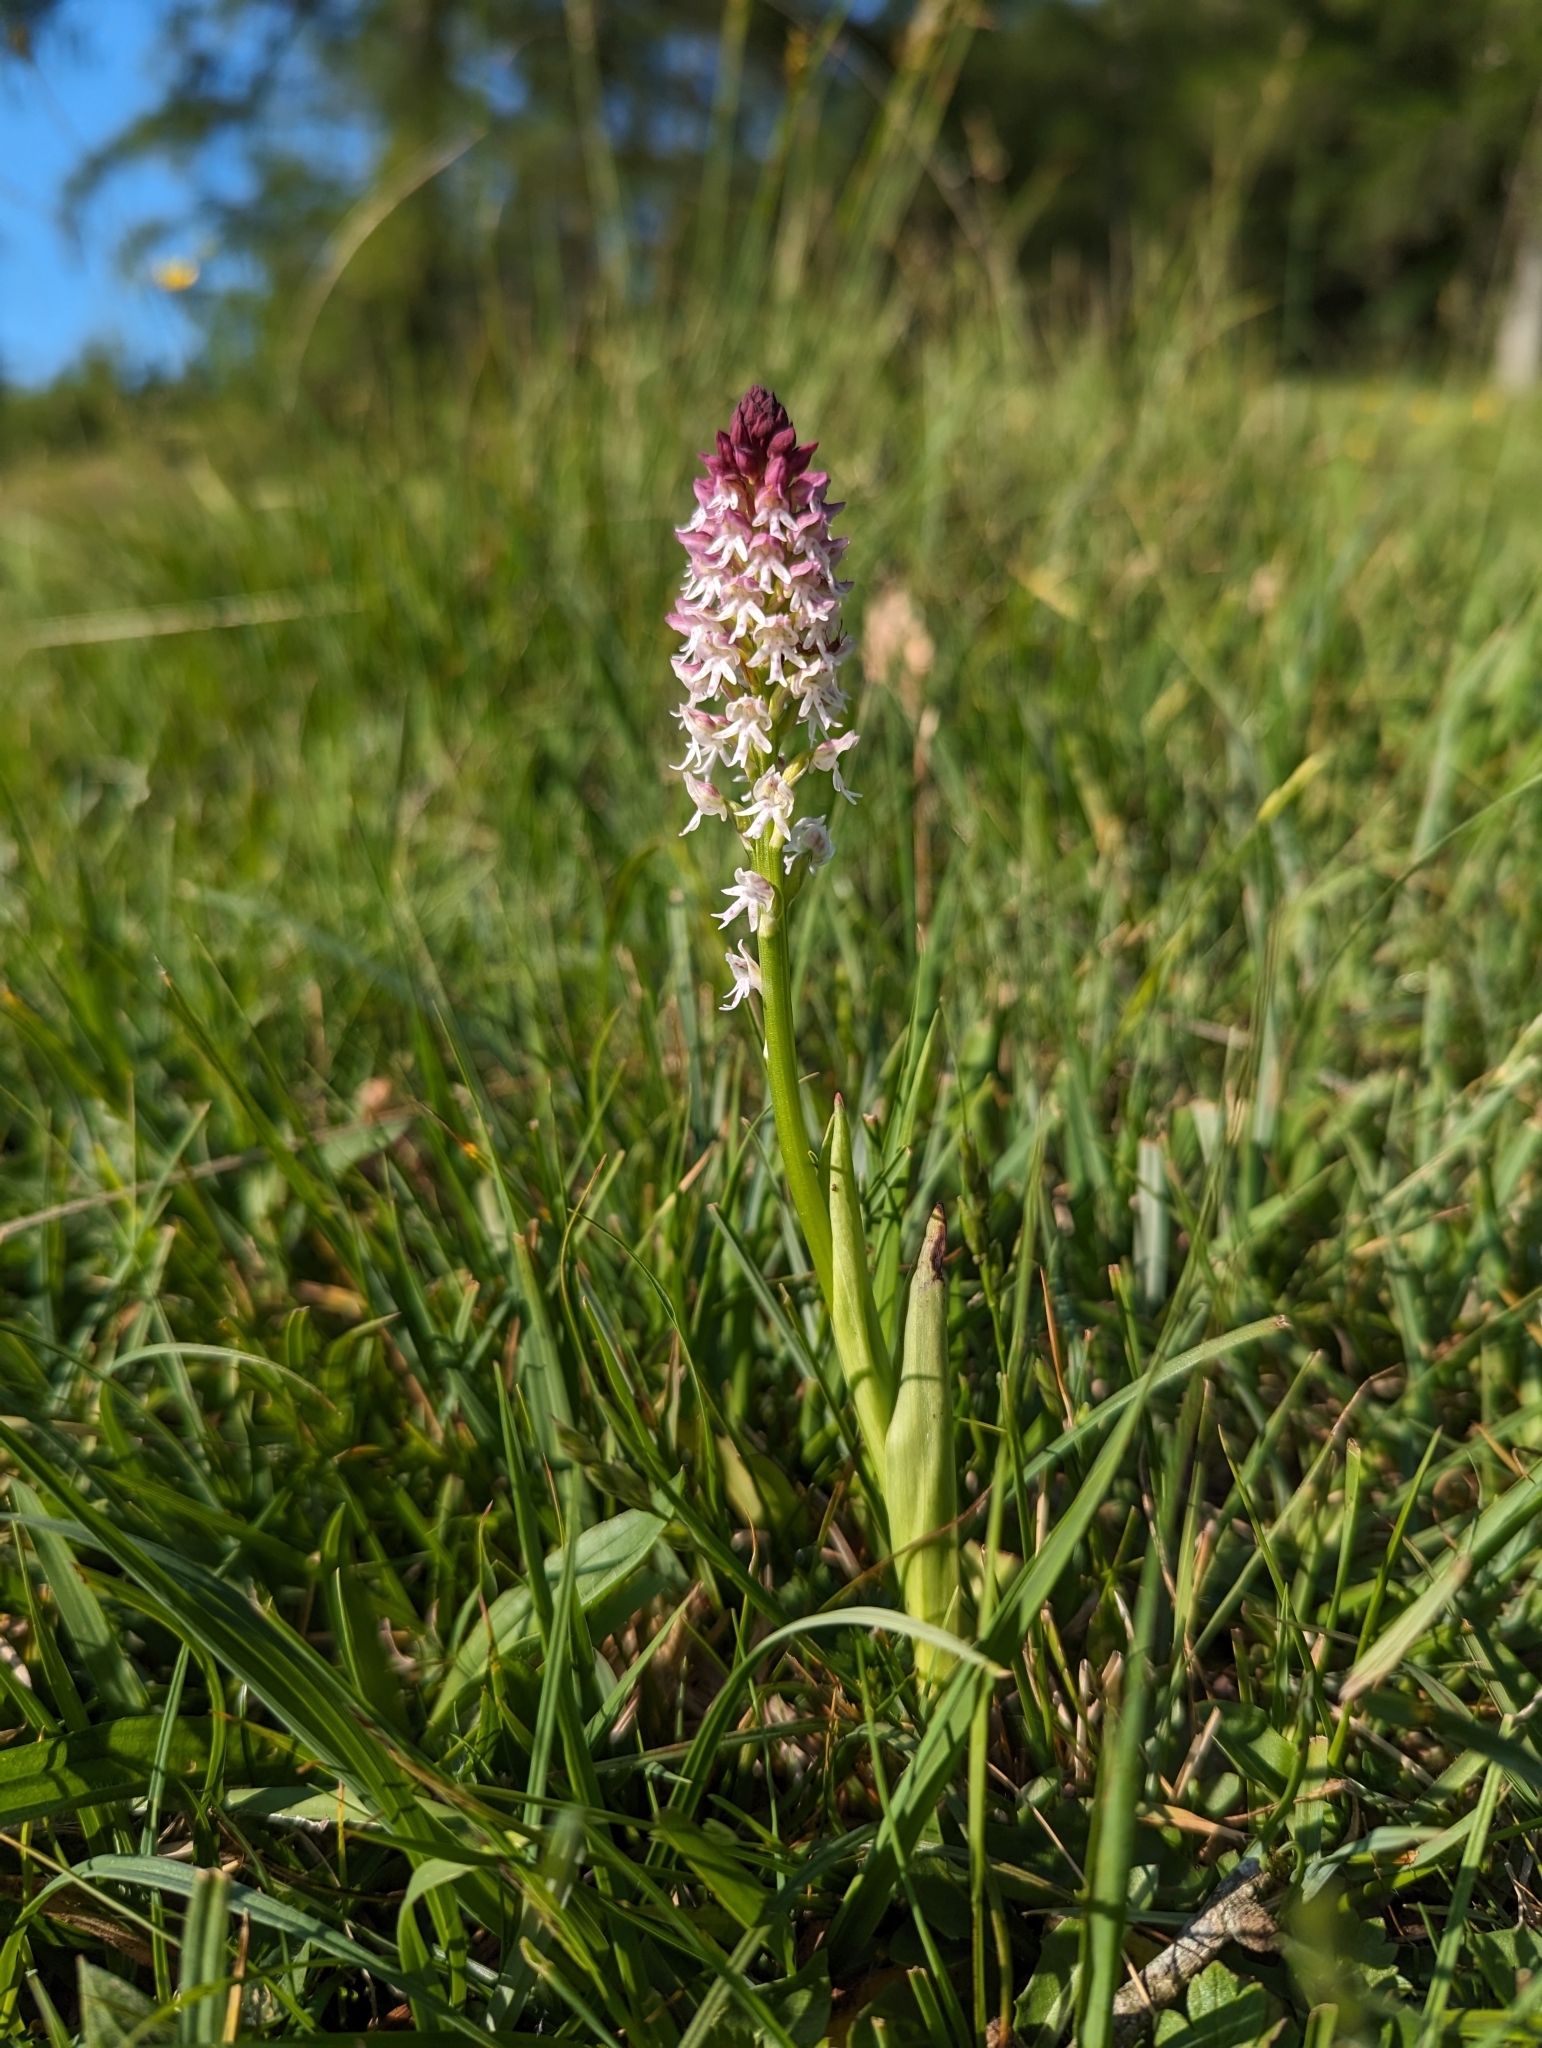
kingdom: Plantae
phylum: Tracheophyta
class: Liliopsida
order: Asparagales
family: Orchidaceae
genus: Neotinea
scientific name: Neotinea ustulata
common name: Burnt orchid
